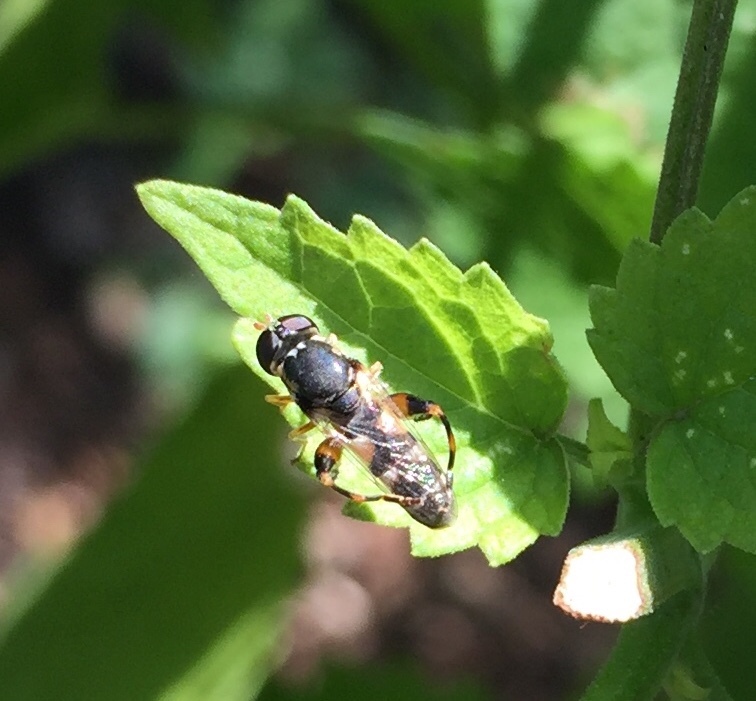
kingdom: Animalia
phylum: Arthropoda
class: Insecta
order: Diptera
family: Syrphidae
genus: Syritta
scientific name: Syritta pipiens
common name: Hover fly
